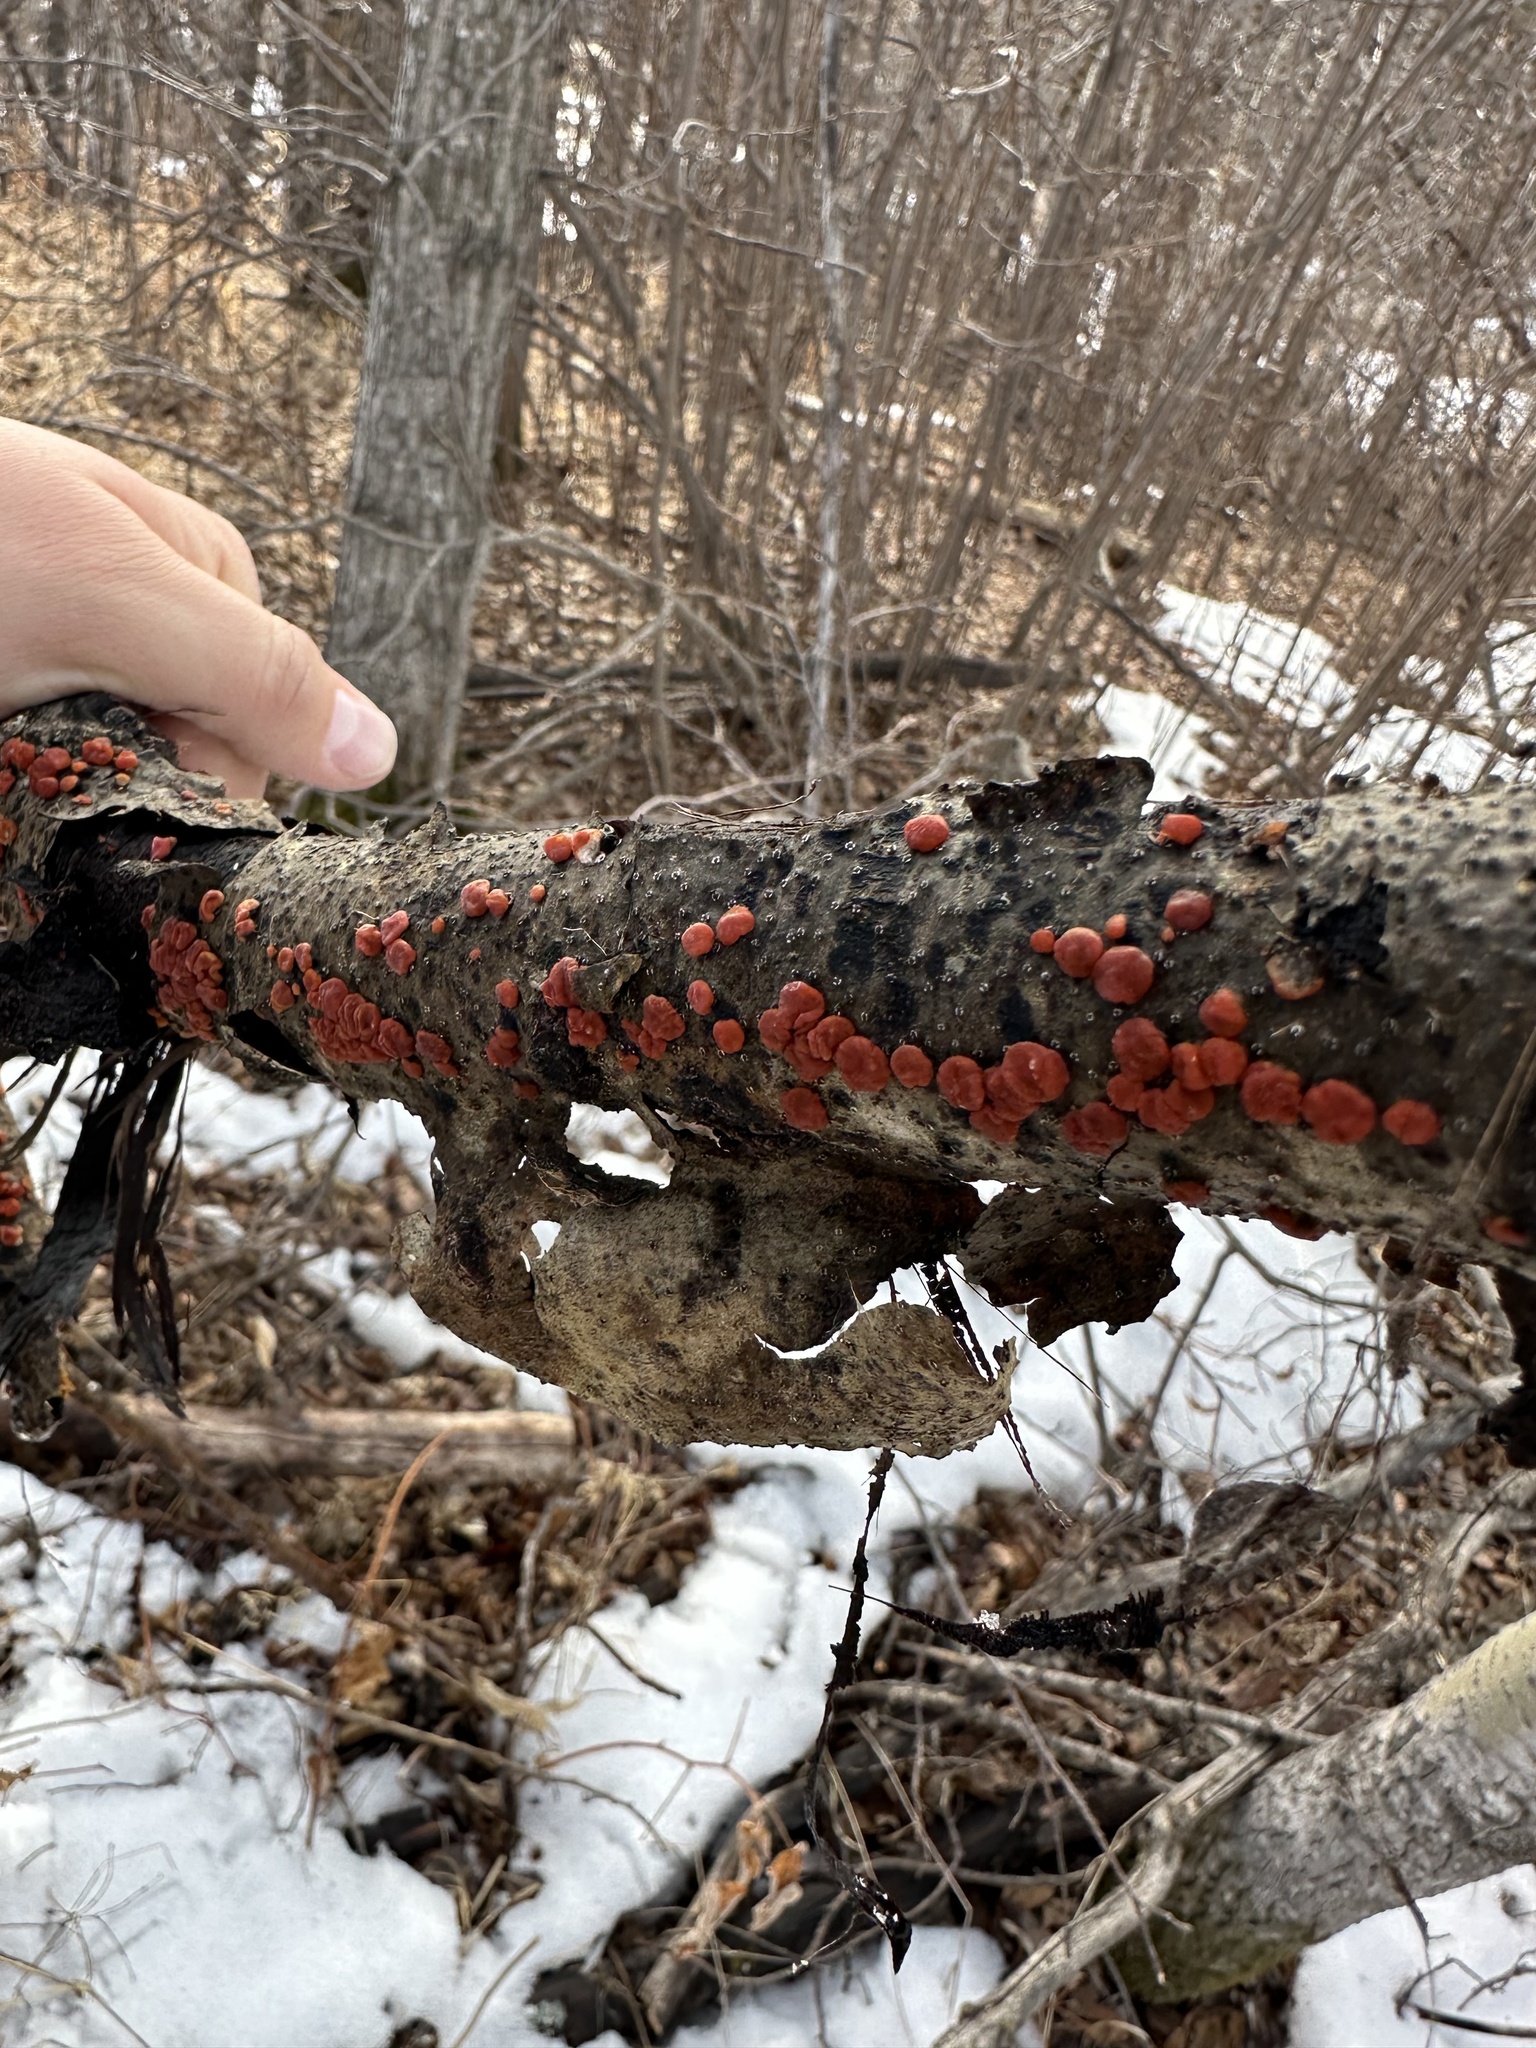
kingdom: Fungi
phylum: Basidiomycota
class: Agaricomycetes
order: Russulales
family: Peniophoraceae
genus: Peniophora
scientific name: Peniophora rufa
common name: Red tree brain fungus
